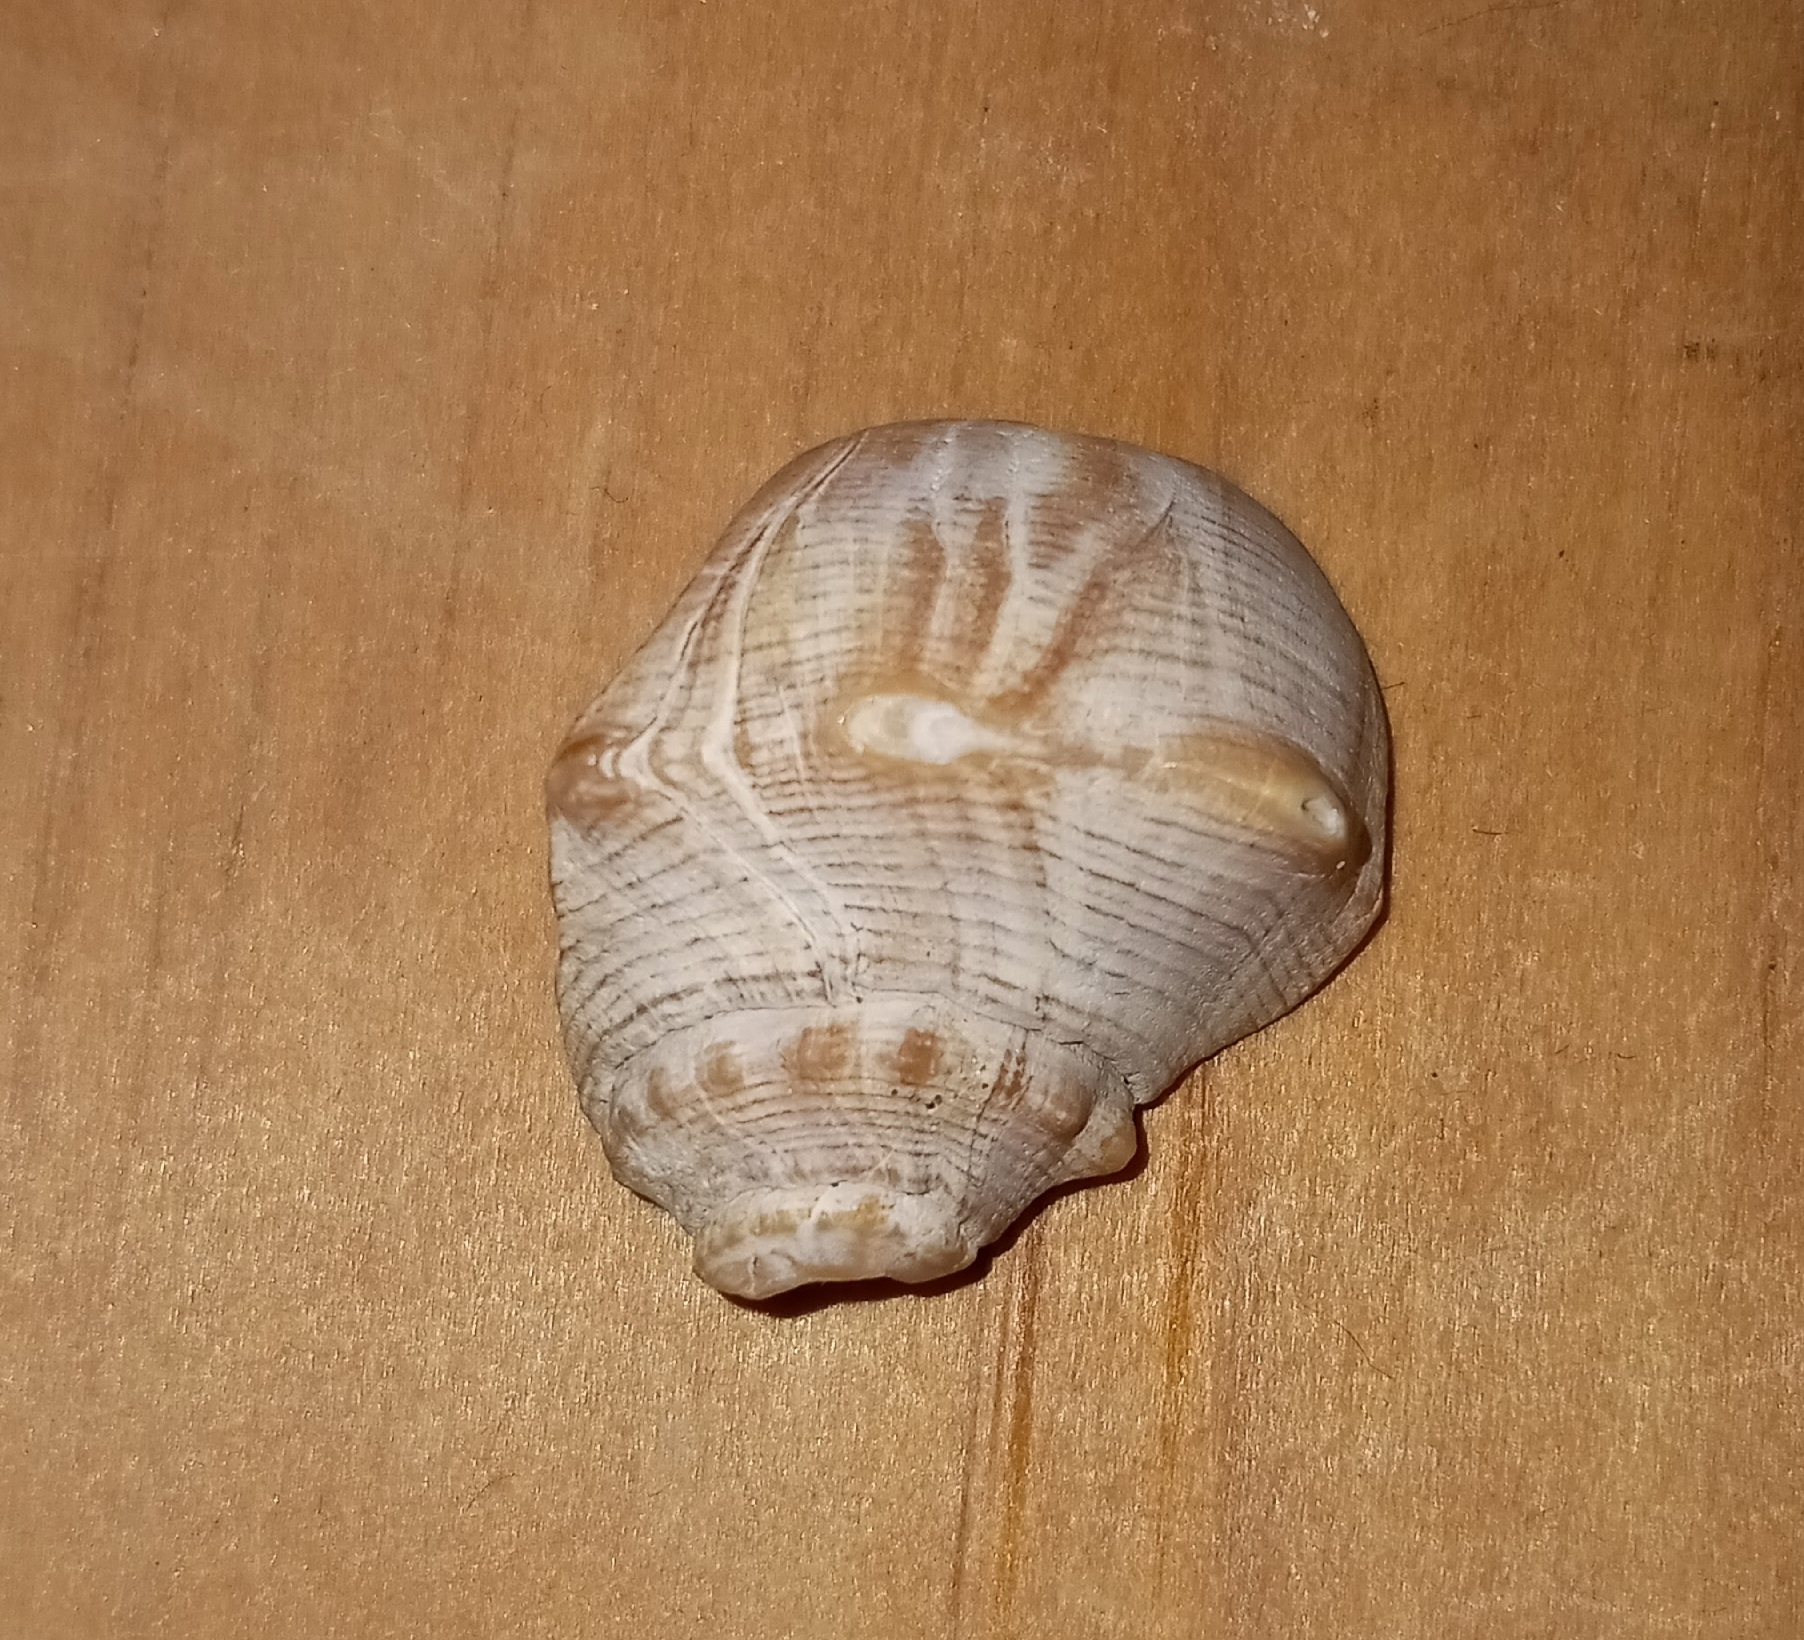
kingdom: Animalia
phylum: Mollusca
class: Gastropoda
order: Neogastropoda
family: Busyconidae
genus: Busycon
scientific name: Busycon carica
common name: Knobbed whelk
